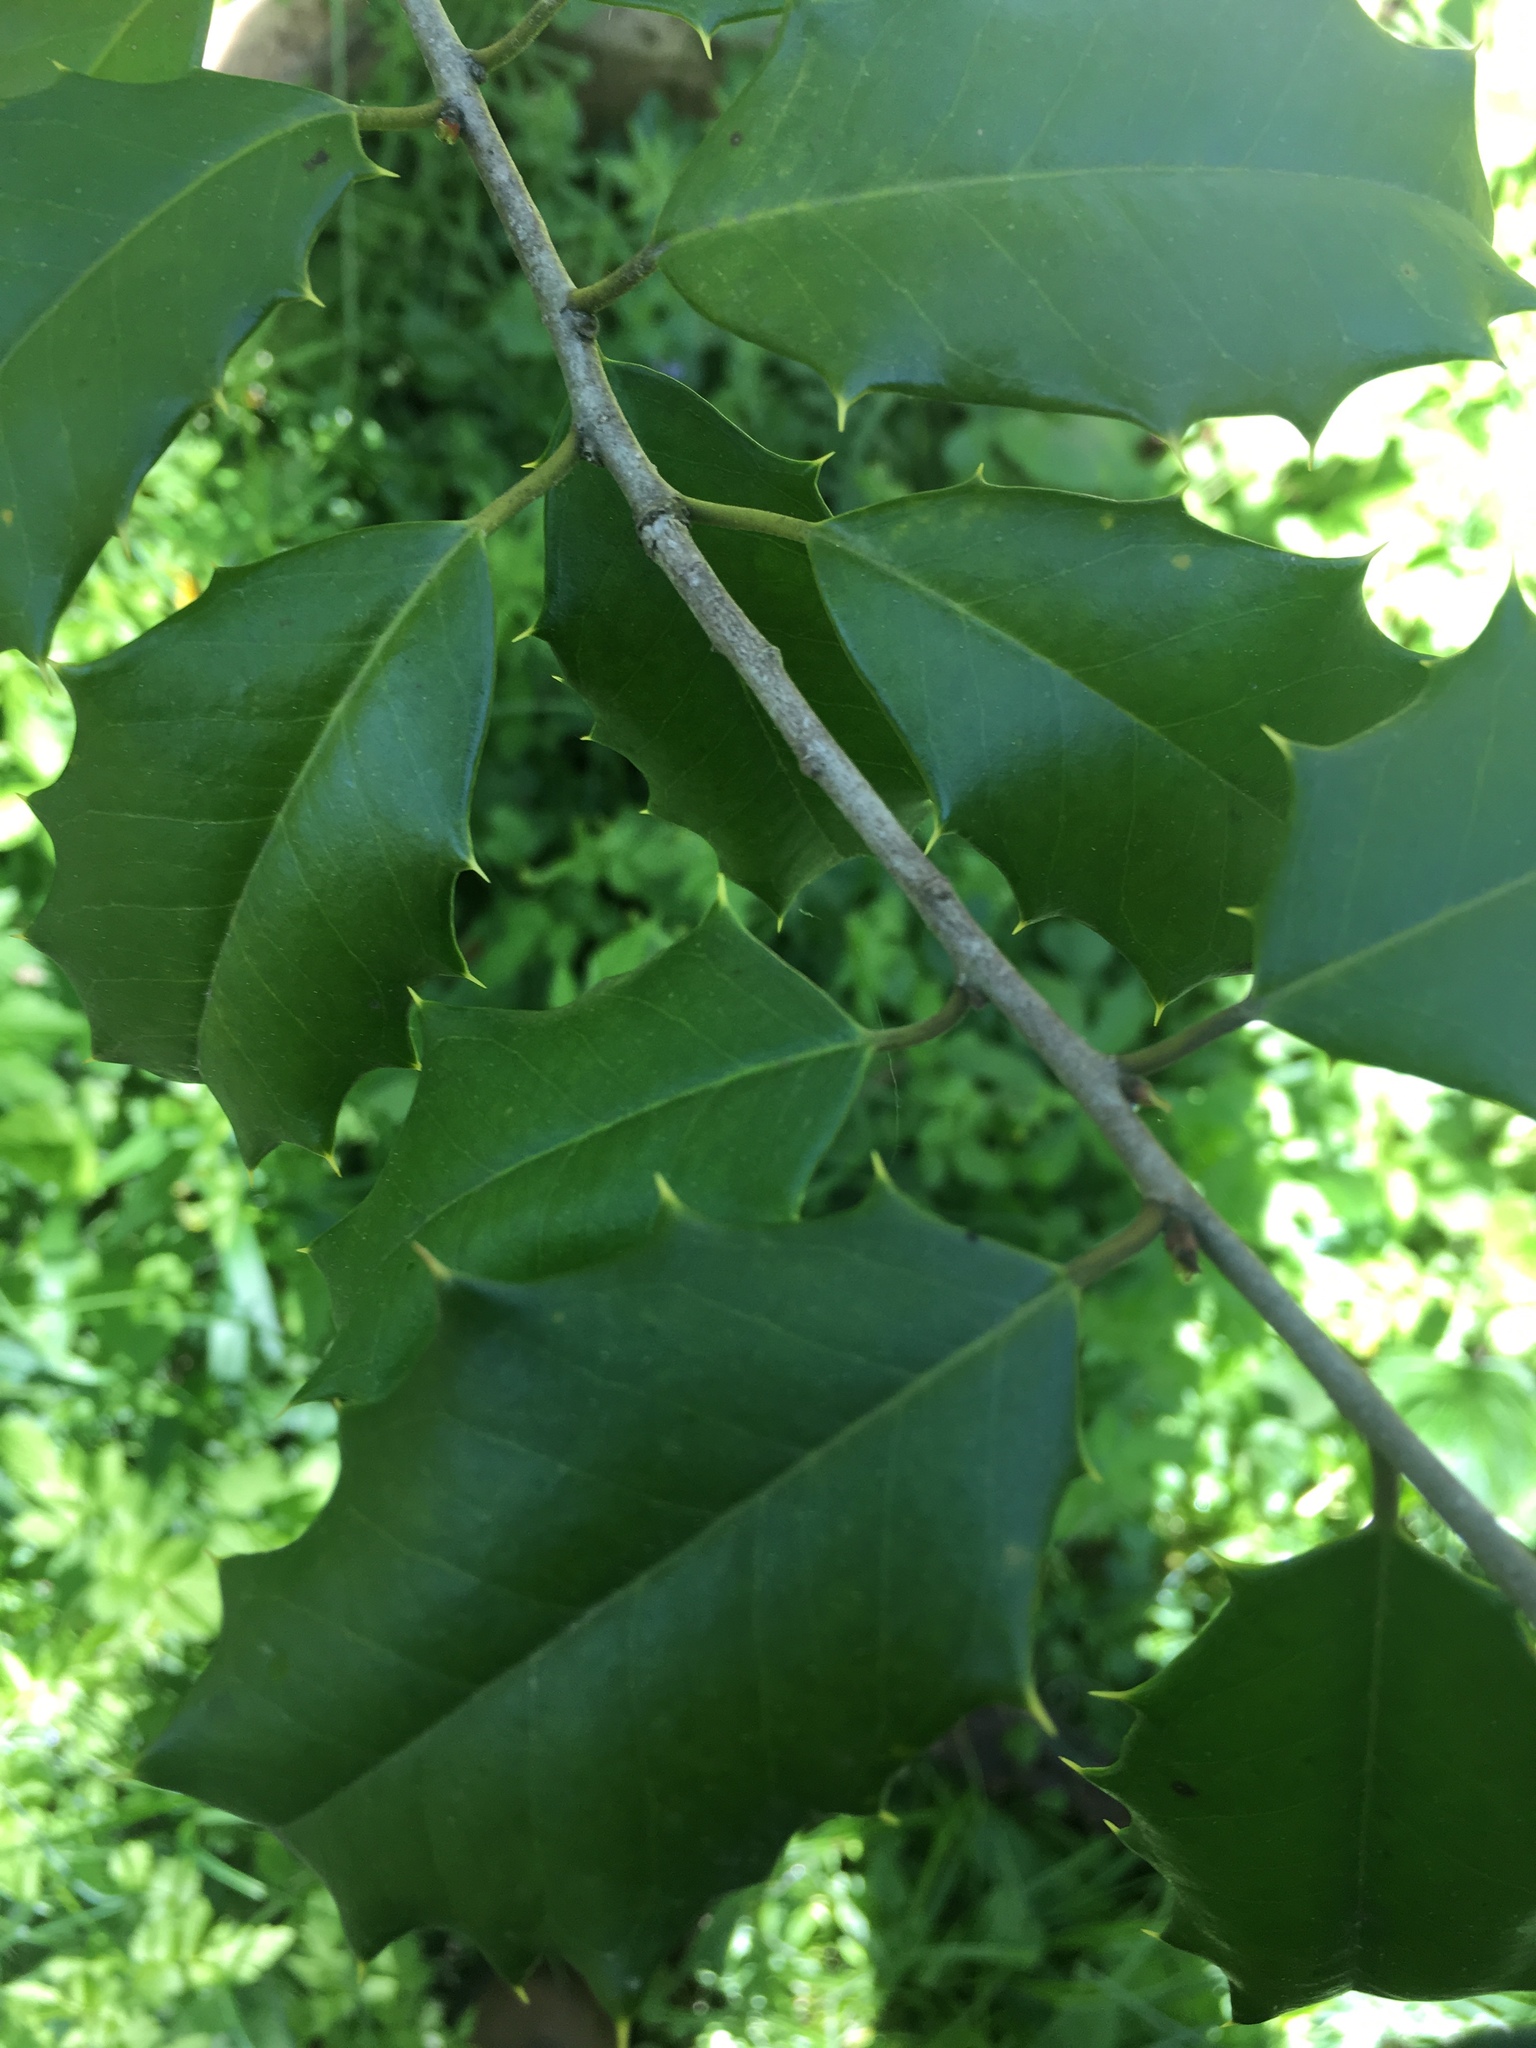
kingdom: Plantae
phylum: Tracheophyta
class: Magnoliopsida
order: Aquifoliales
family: Aquifoliaceae
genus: Ilex
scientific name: Ilex opaca
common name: American holly
